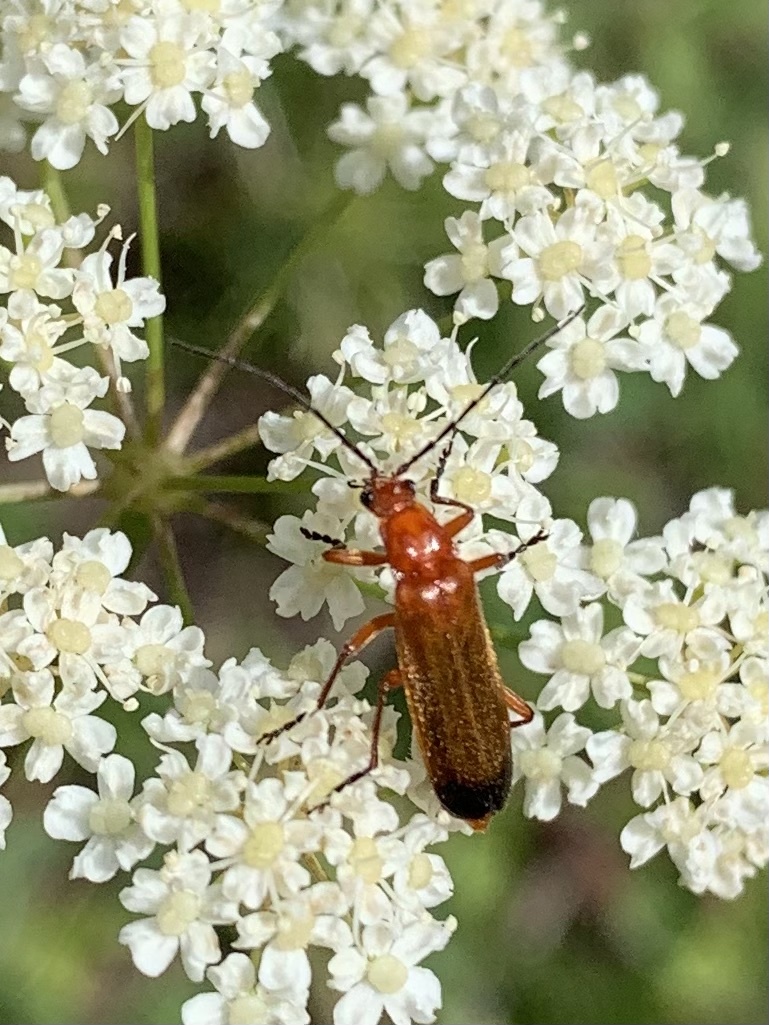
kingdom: Animalia
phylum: Arthropoda
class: Insecta
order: Coleoptera
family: Cantharidae
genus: Rhagonycha
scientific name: Rhagonycha fulva
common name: Common red soldier beetle
